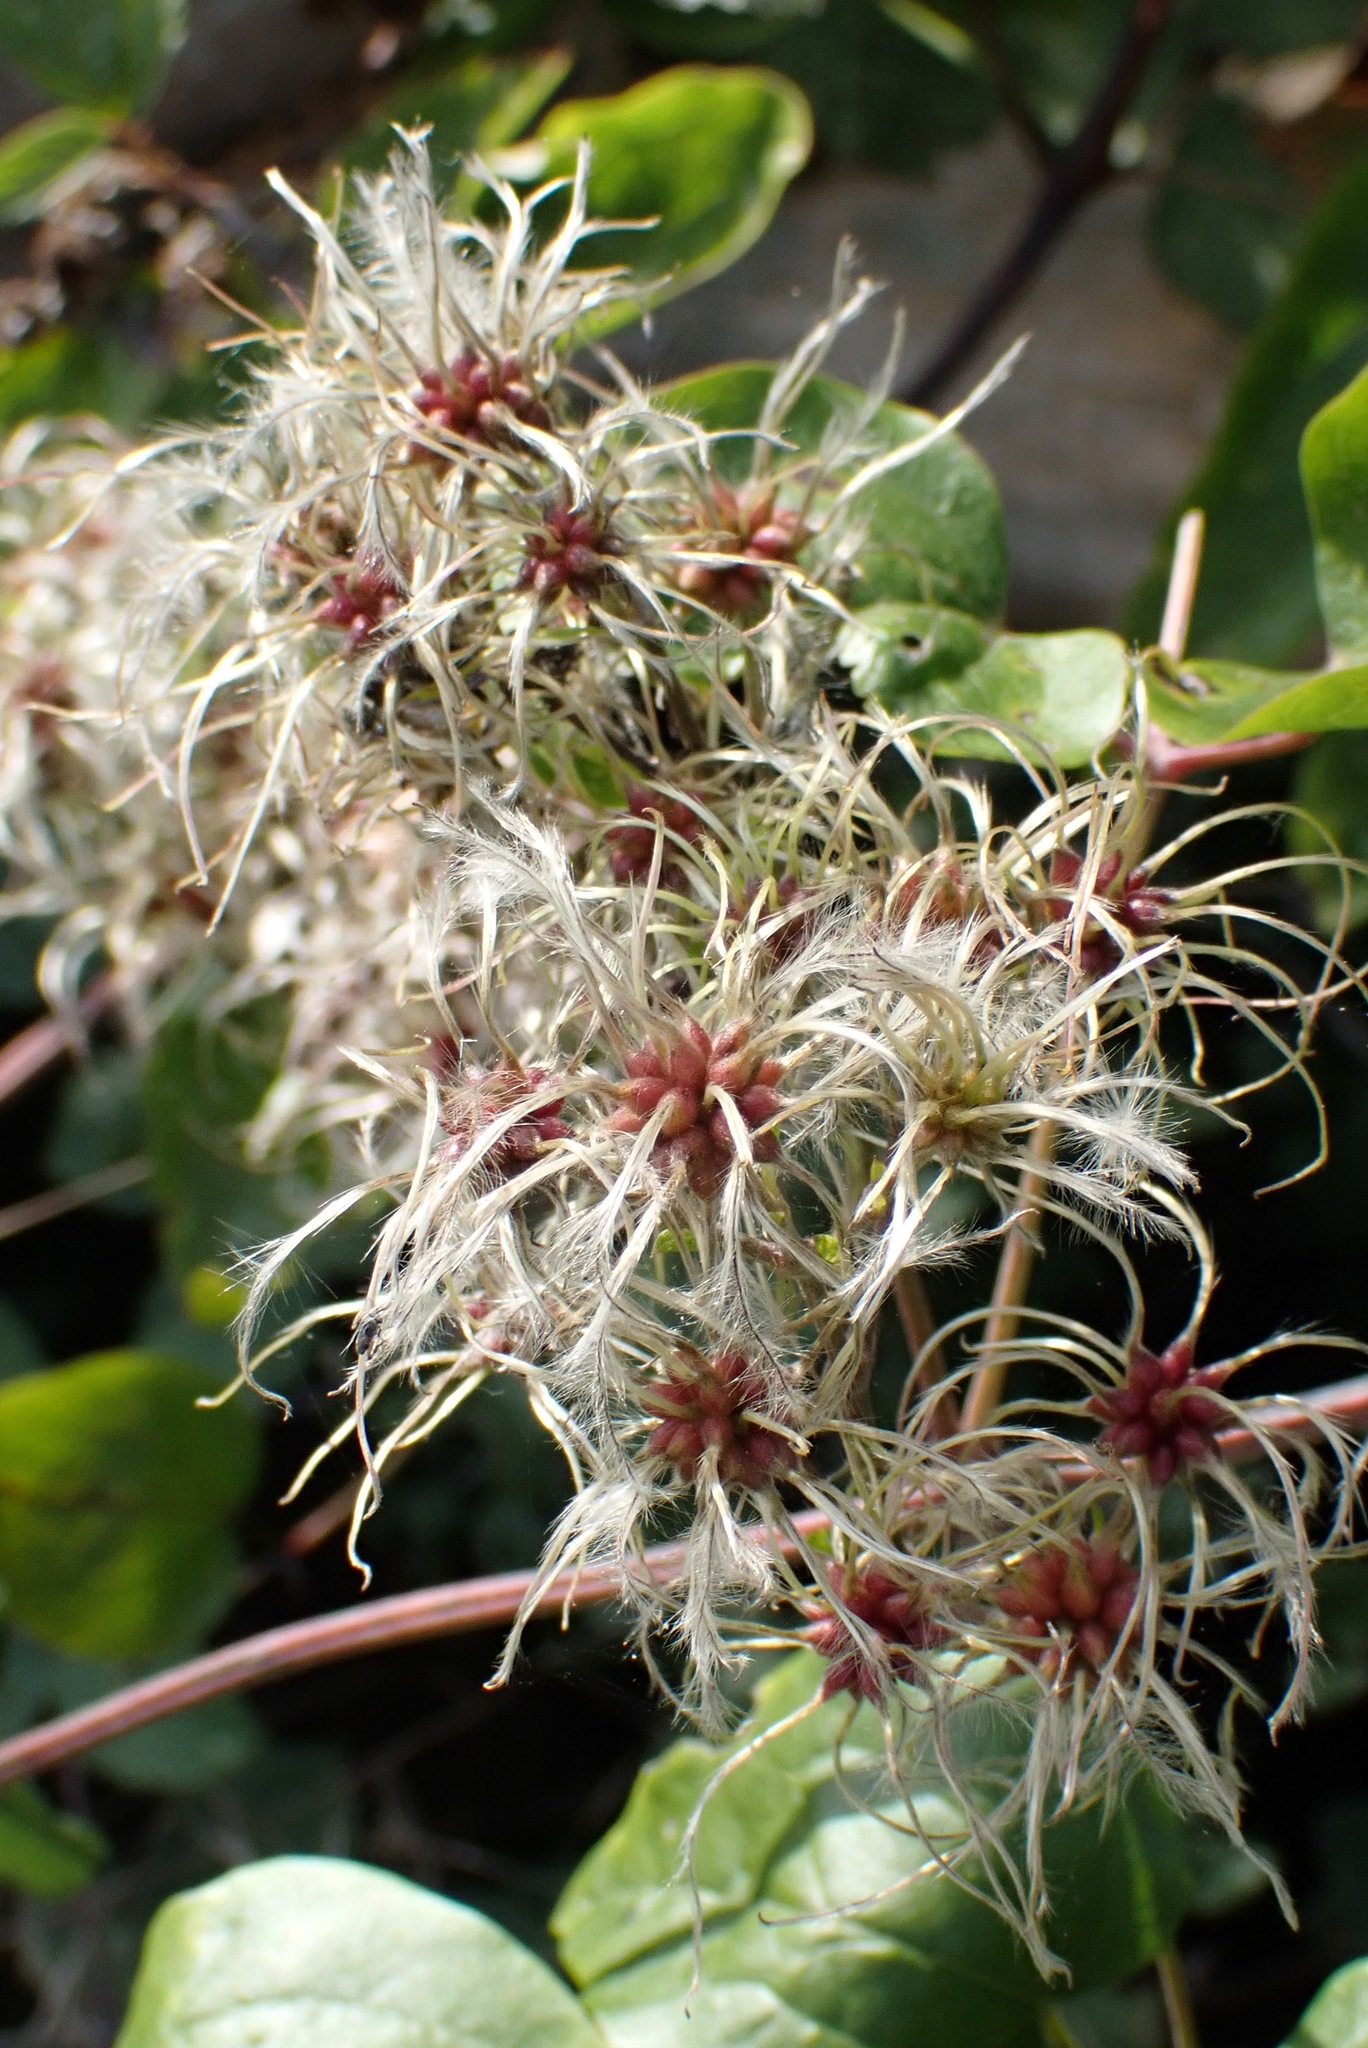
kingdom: Plantae
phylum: Tracheophyta
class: Magnoliopsida
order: Ranunculales
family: Ranunculaceae
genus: Clematis
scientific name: Clematis vitalba
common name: Evergreen clematis
